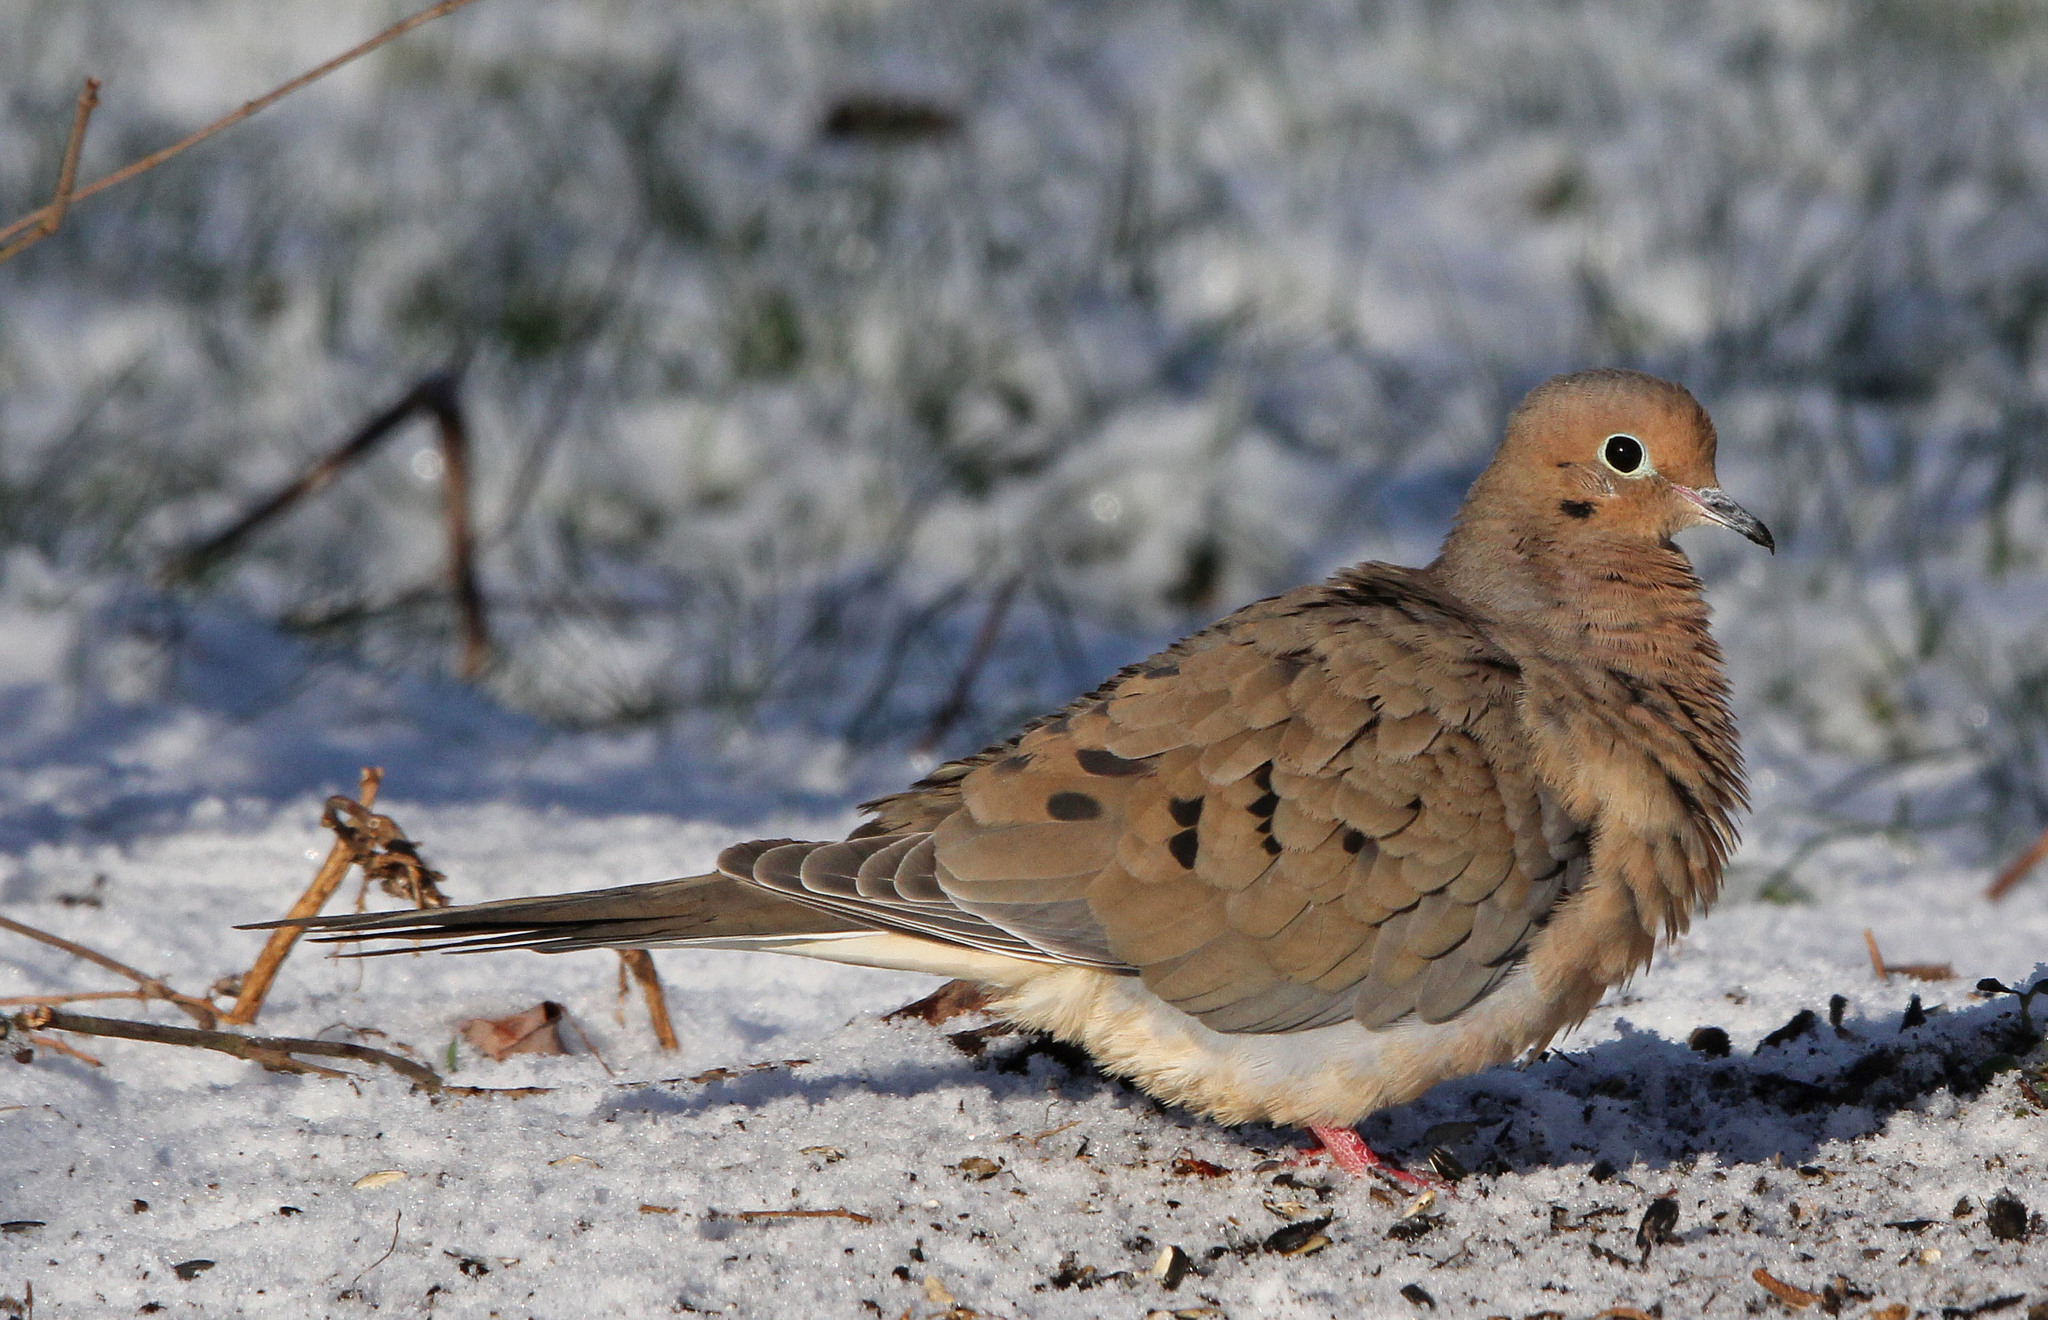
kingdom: Animalia
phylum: Chordata
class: Aves
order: Columbiformes
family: Columbidae
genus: Zenaida
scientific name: Zenaida macroura
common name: Mourning dove
